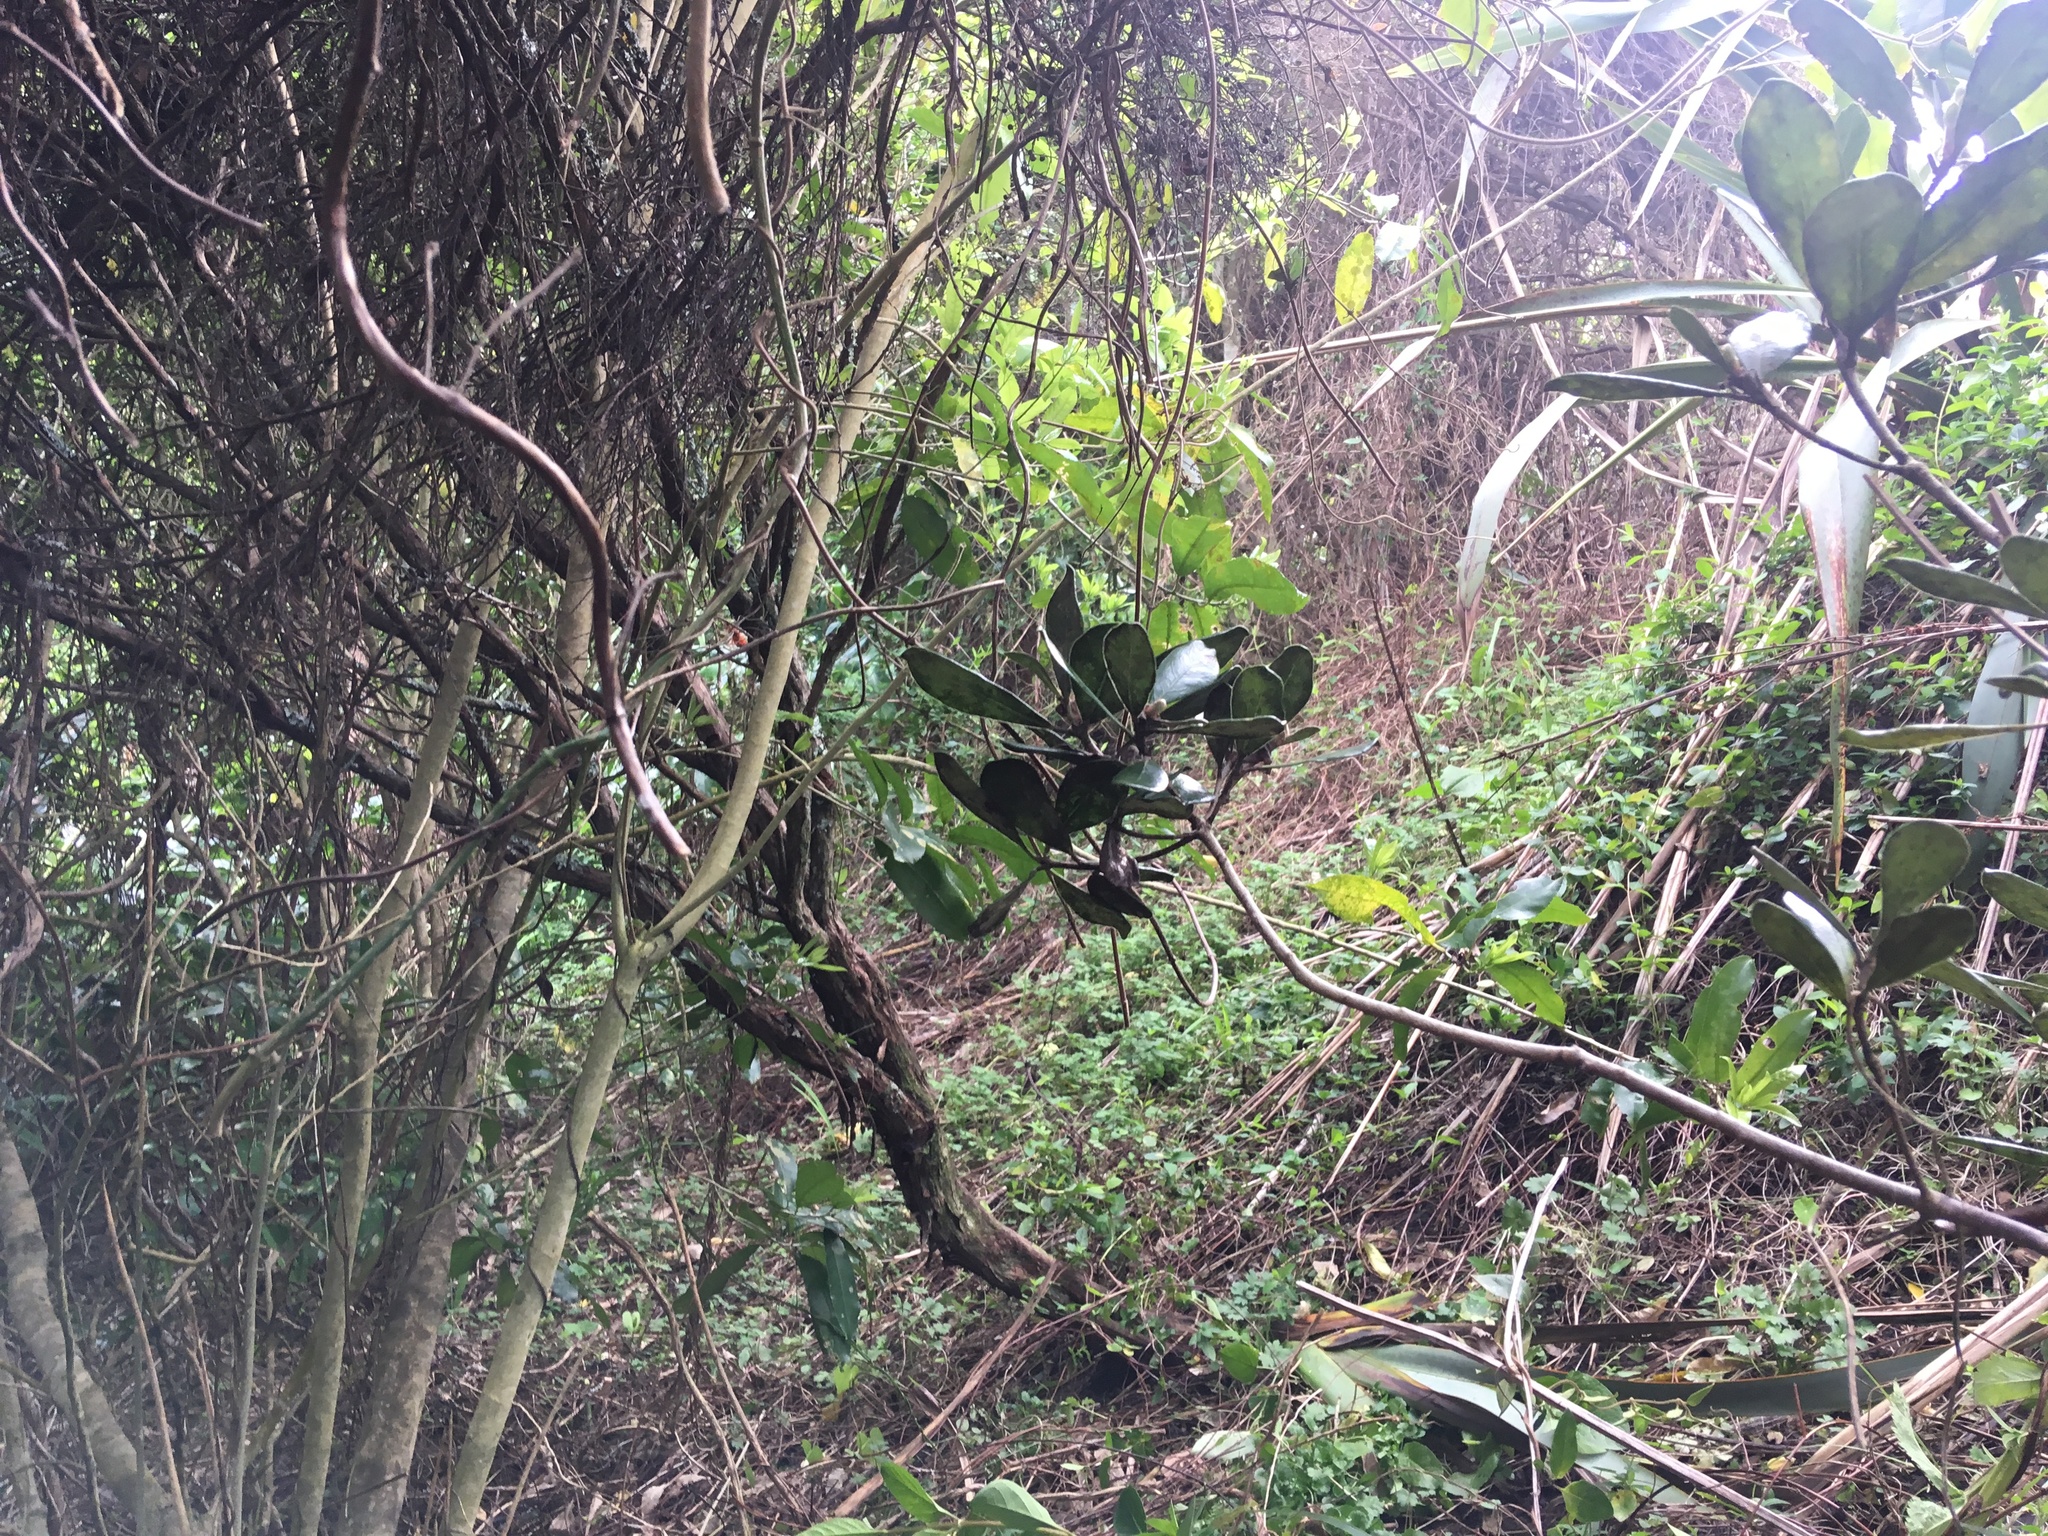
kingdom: Plantae
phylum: Tracheophyta
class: Magnoliopsida
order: Malpighiales
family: Violaceae
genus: Melicytus
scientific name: Melicytus ramiflorus
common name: Mahoe
